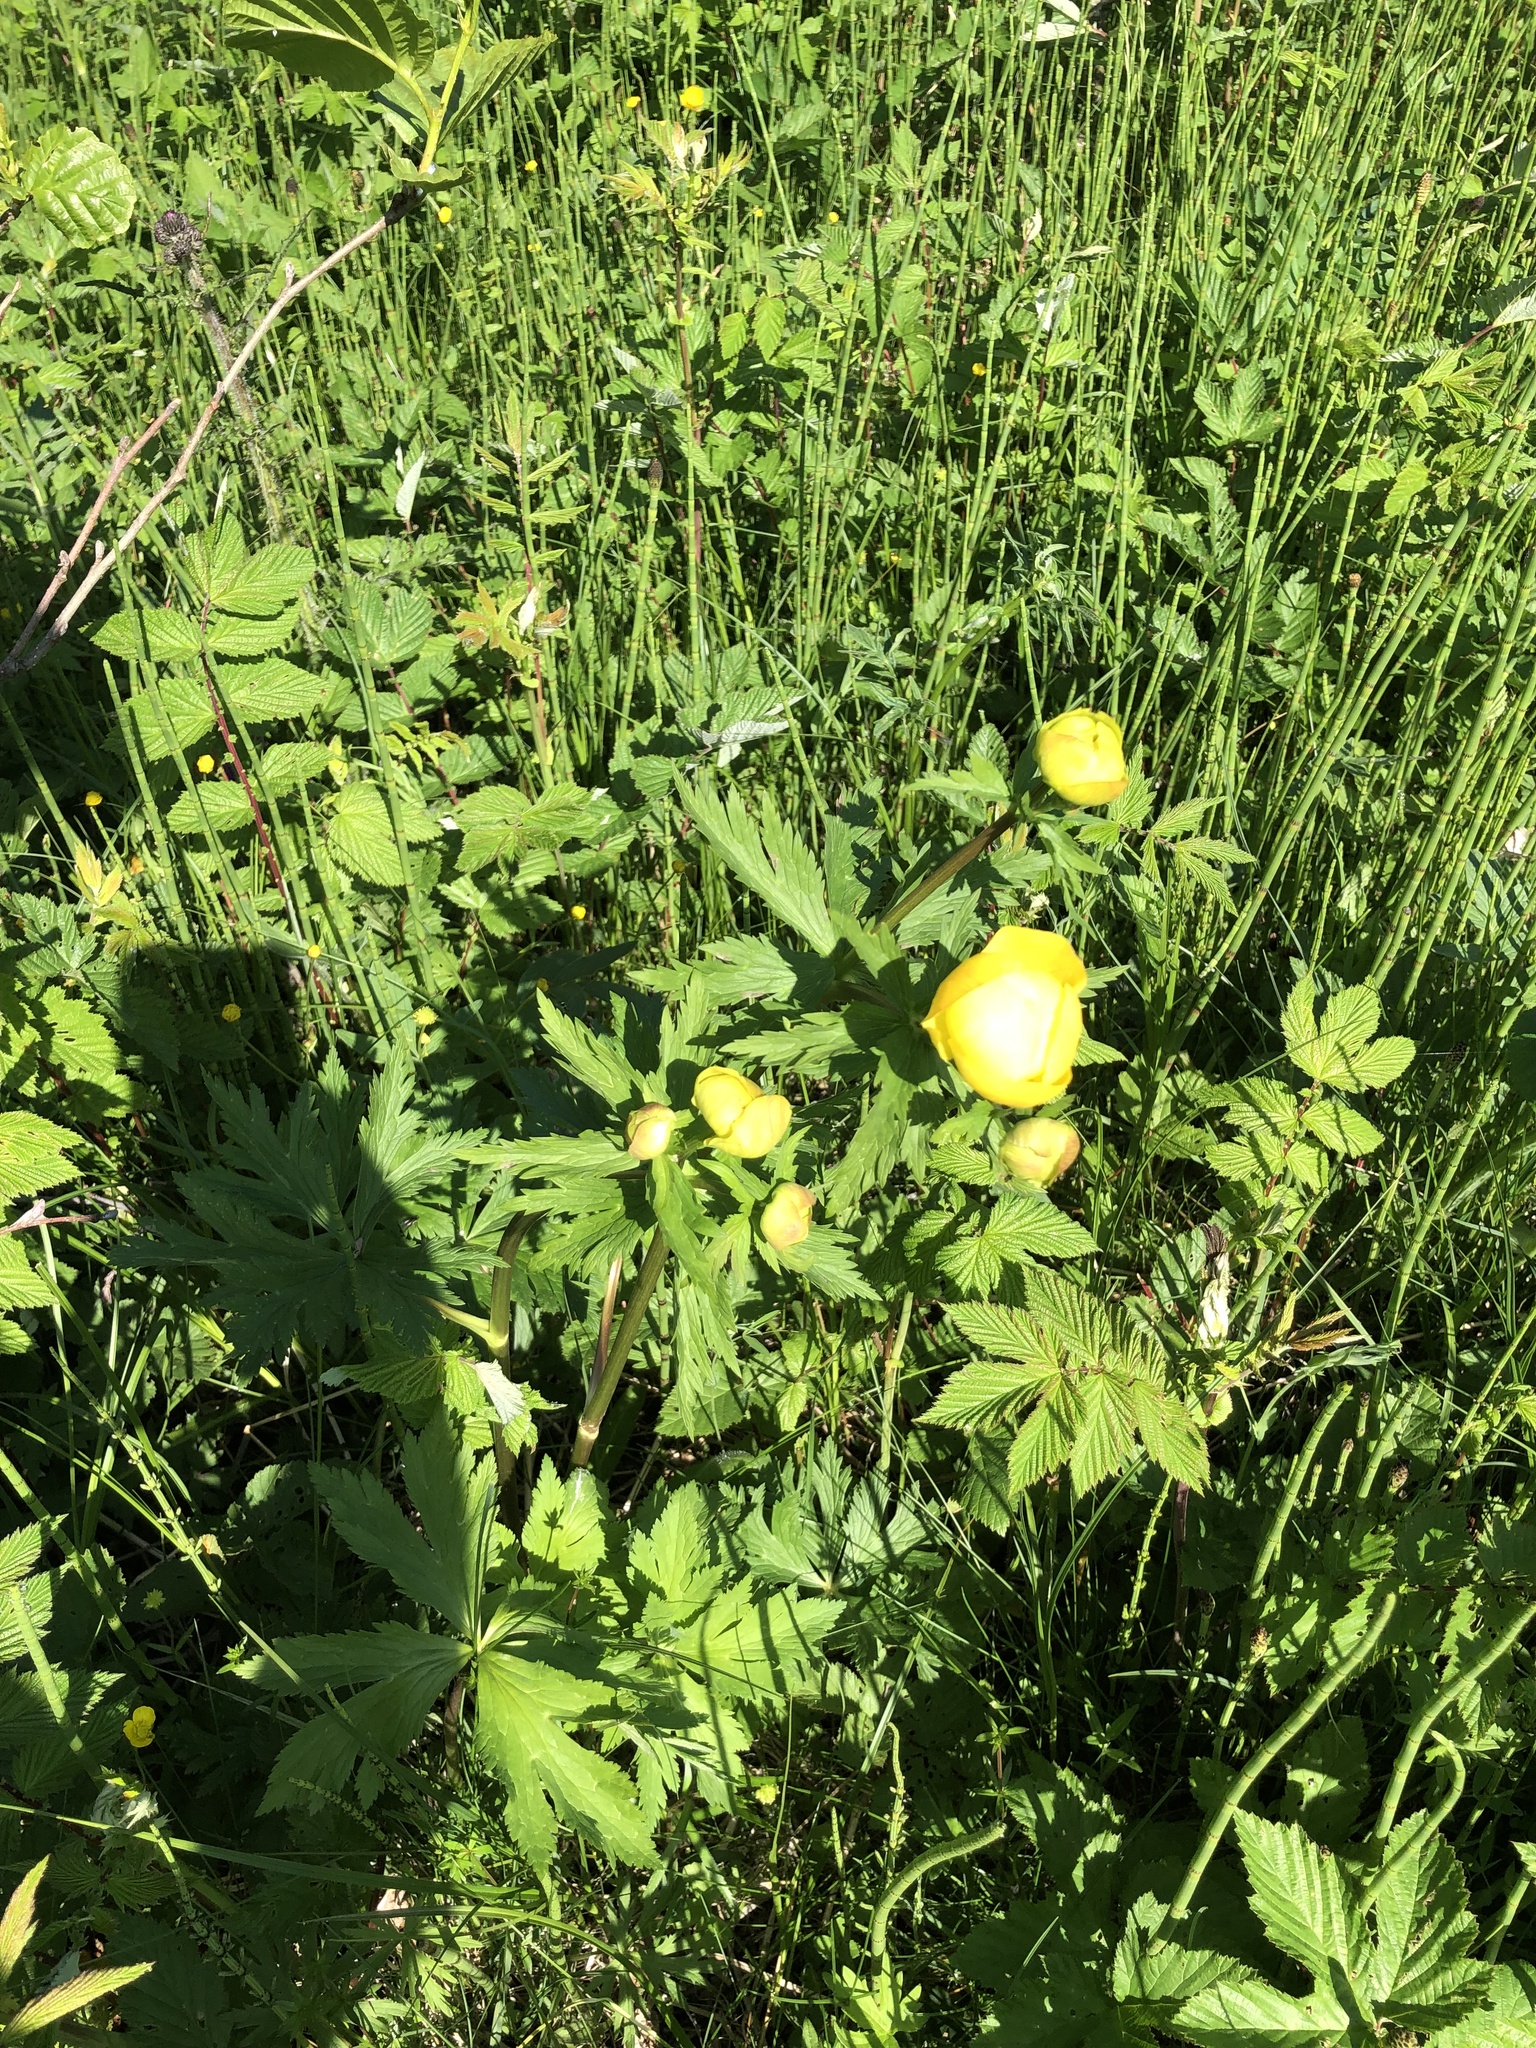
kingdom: Plantae
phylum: Tracheophyta
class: Magnoliopsida
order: Ranunculales
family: Ranunculaceae
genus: Trollius
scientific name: Trollius europaeus
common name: European globeflower
